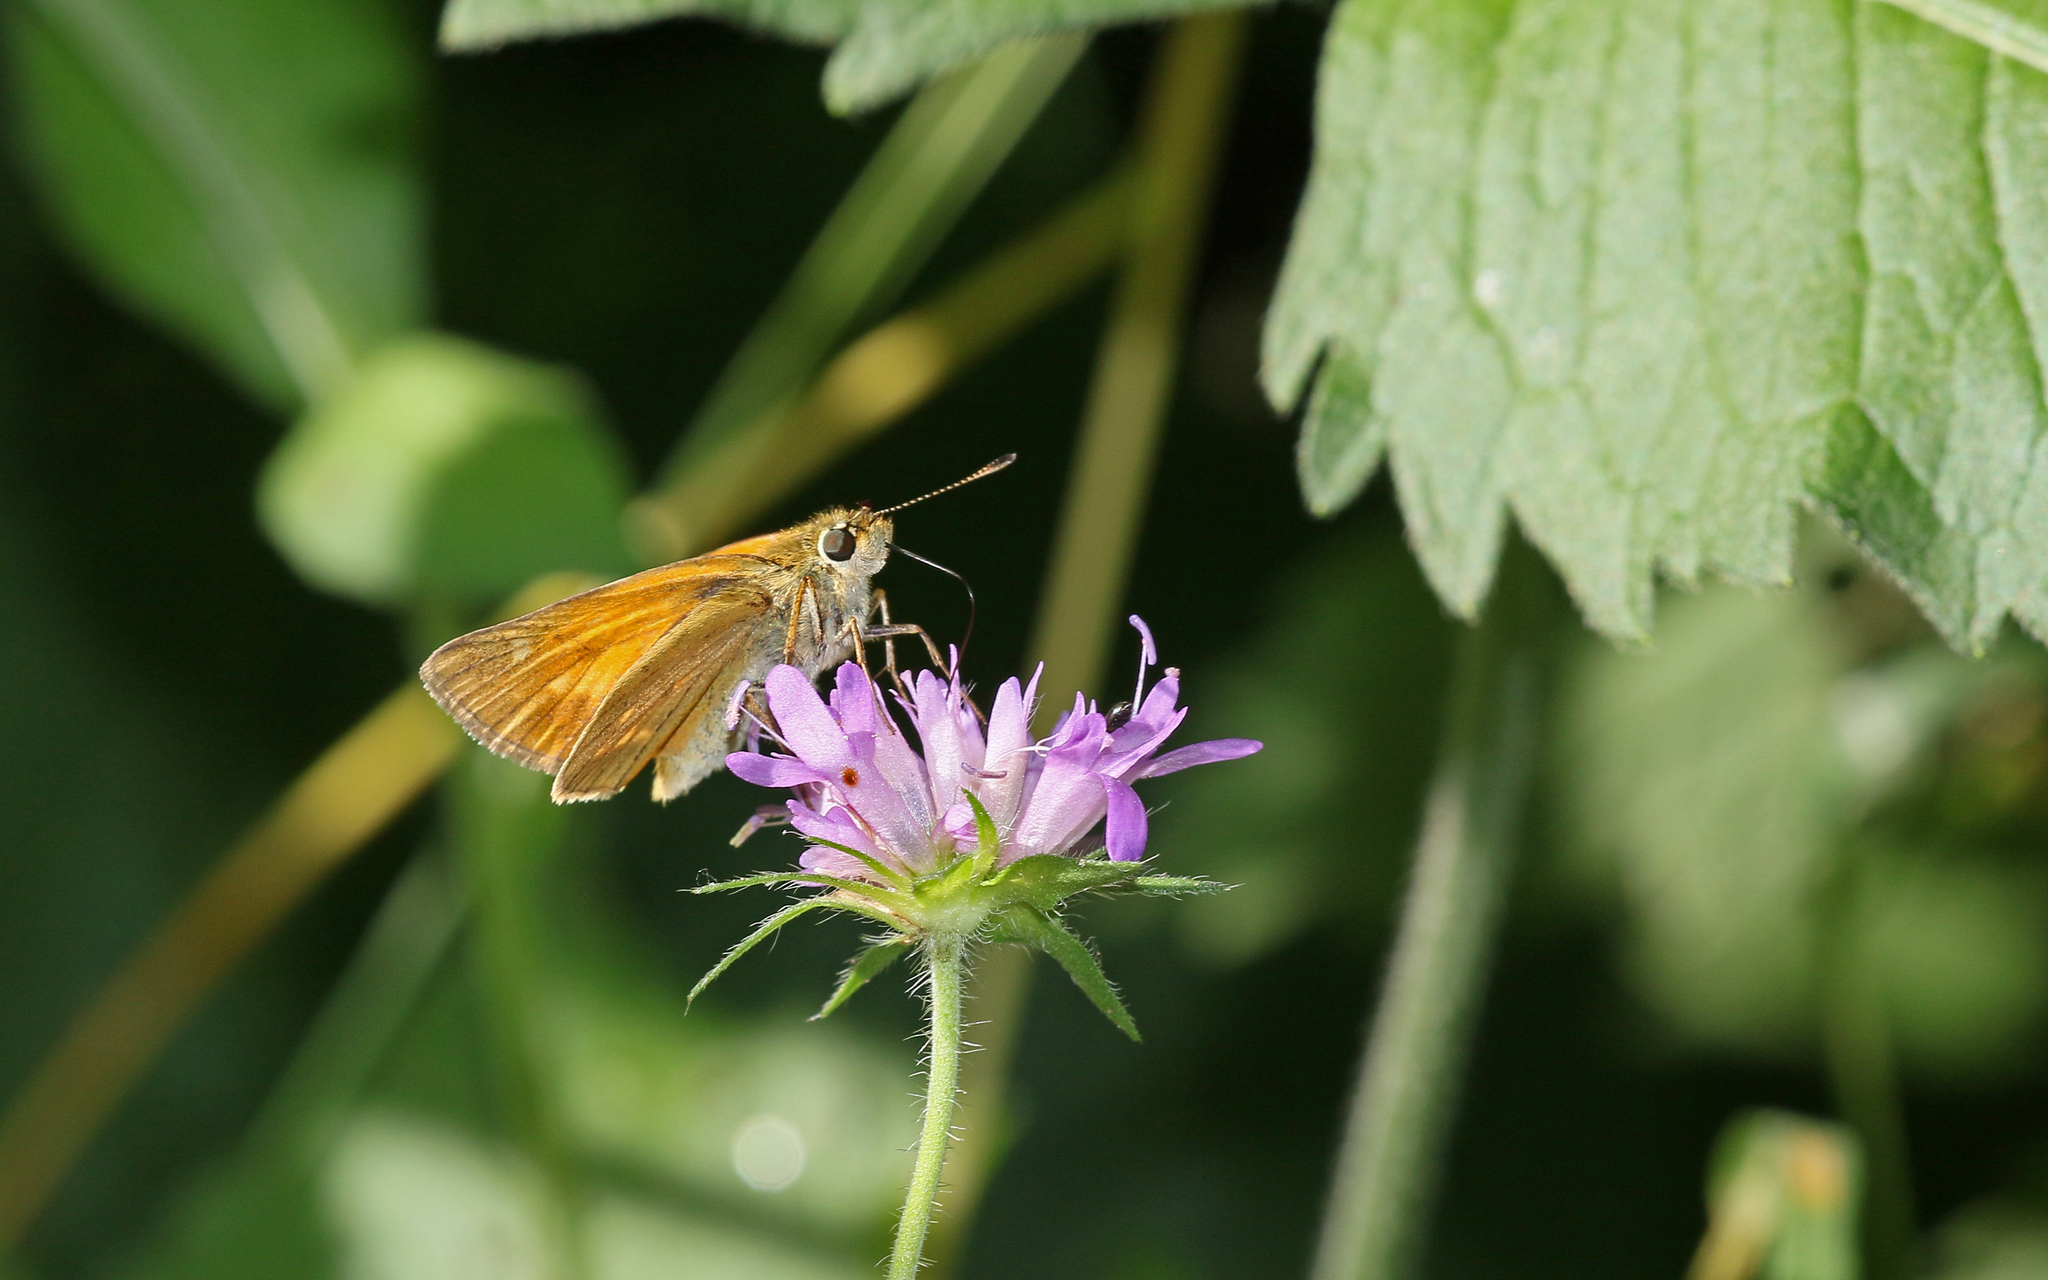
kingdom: Animalia
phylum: Arthropoda
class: Insecta
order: Lepidoptera
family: Hesperiidae
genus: Ochlodes
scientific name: Ochlodes venata
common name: Large skipper
